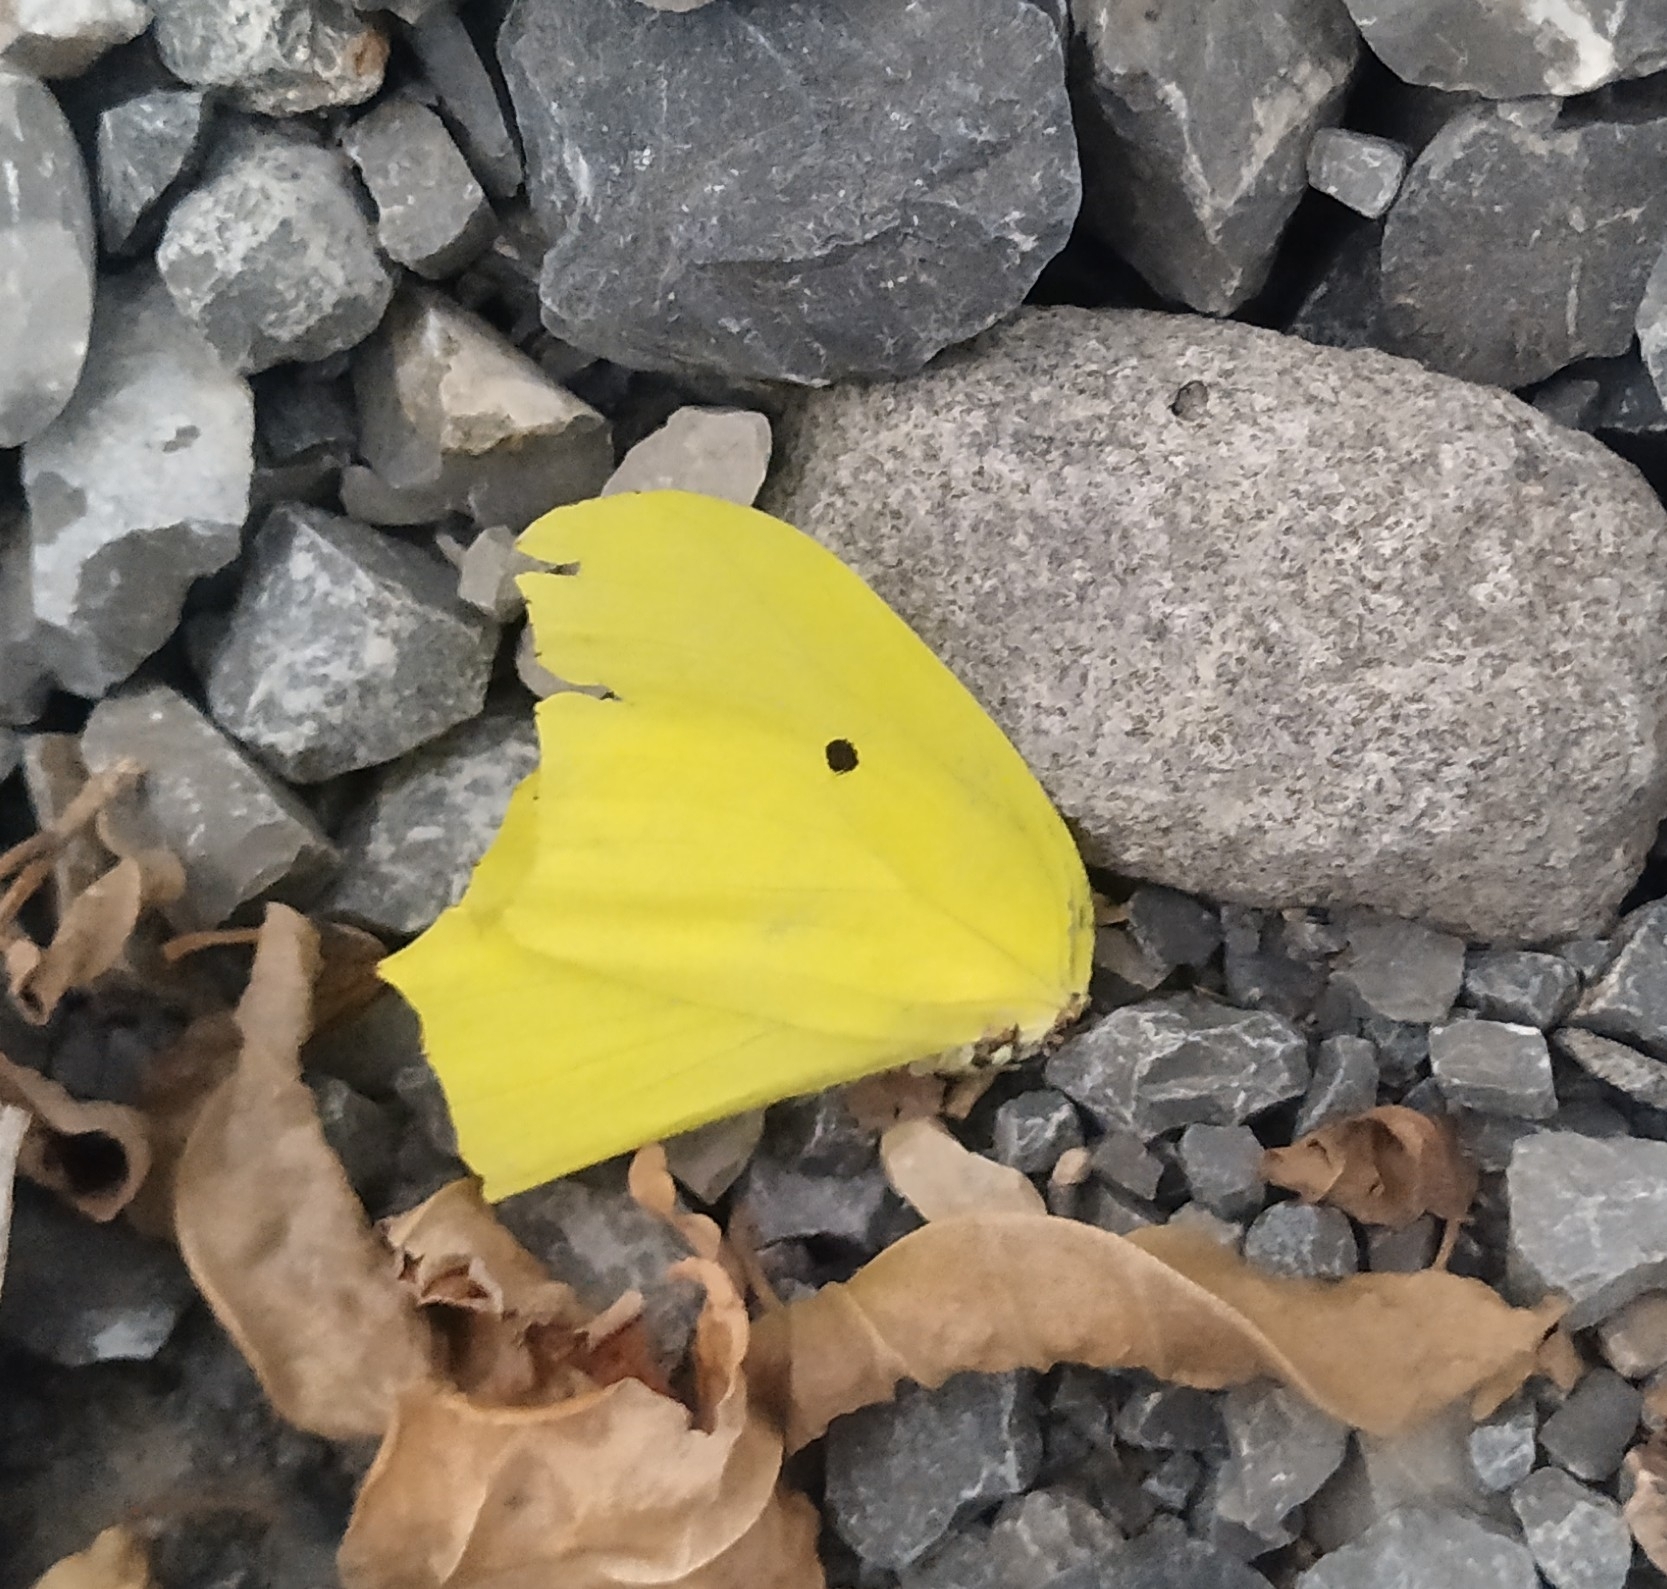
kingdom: Animalia
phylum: Arthropoda
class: Insecta
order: Lepidoptera
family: Pieridae
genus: Anteos
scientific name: Anteos maerula
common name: Angled sulphur
